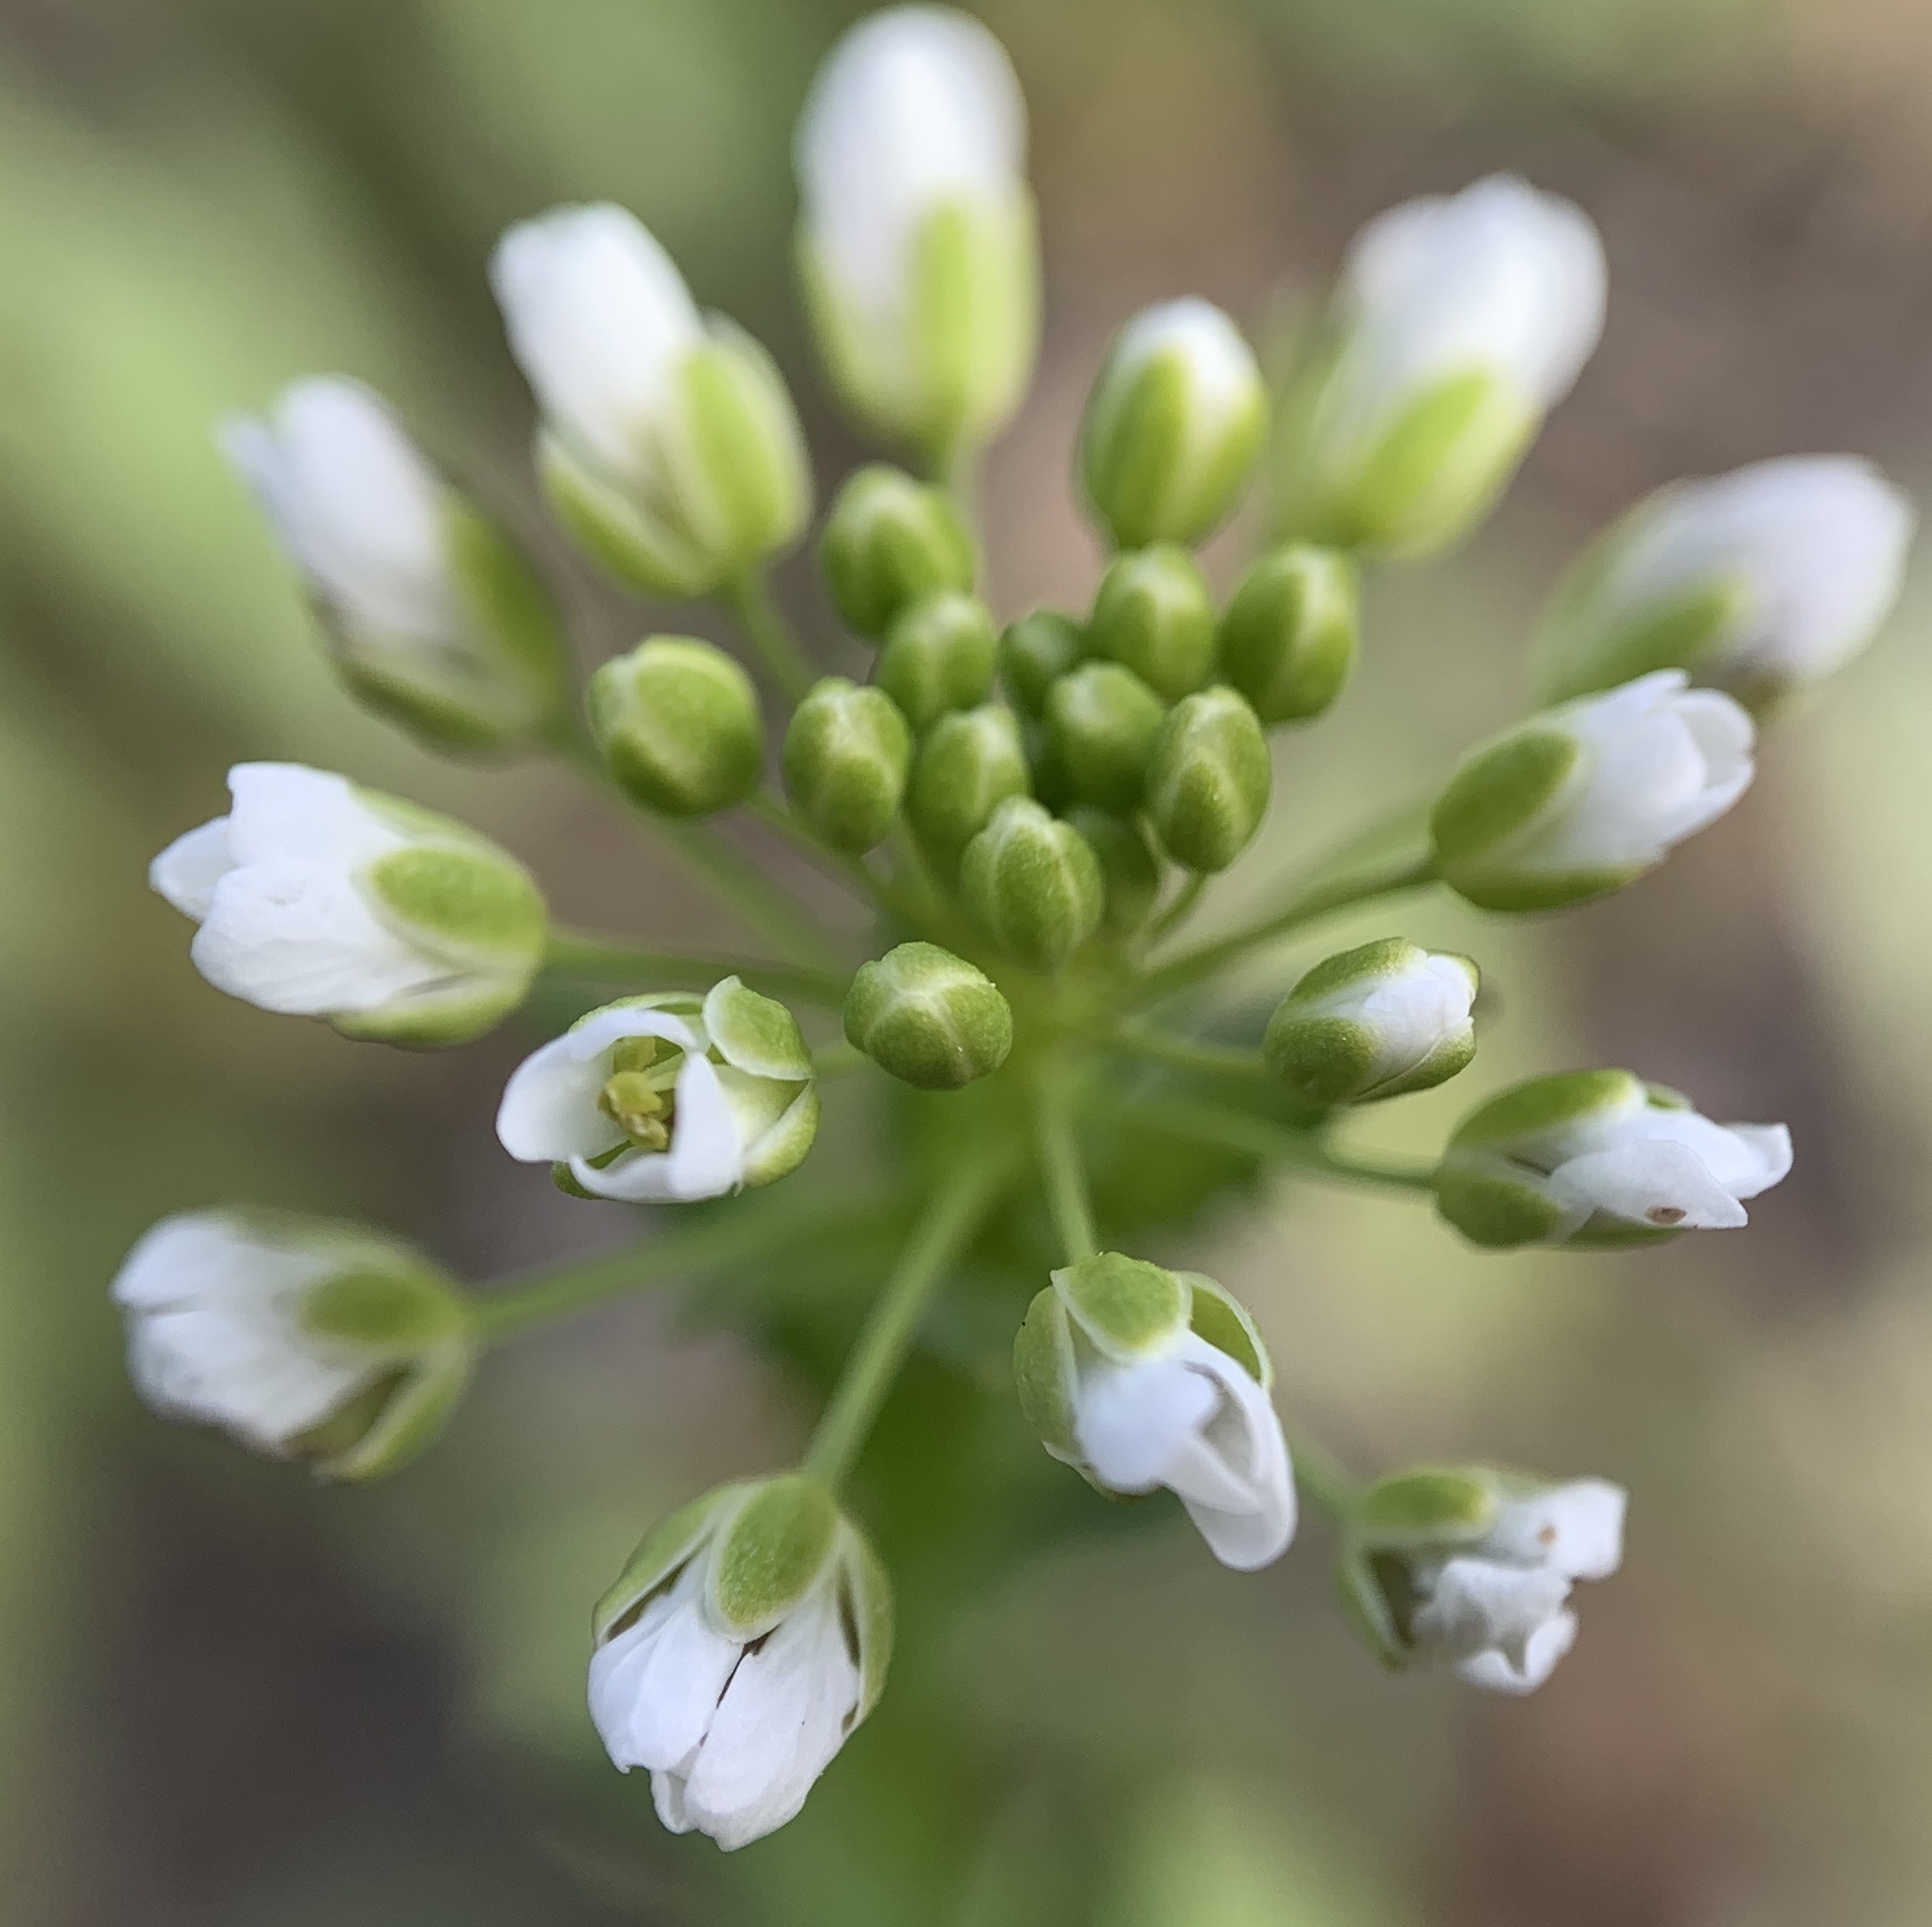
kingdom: Plantae
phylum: Tracheophyta
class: Magnoliopsida
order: Brassicales
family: Brassicaceae
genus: Thlaspi
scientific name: Thlaspi arvense
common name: Field pennycress
